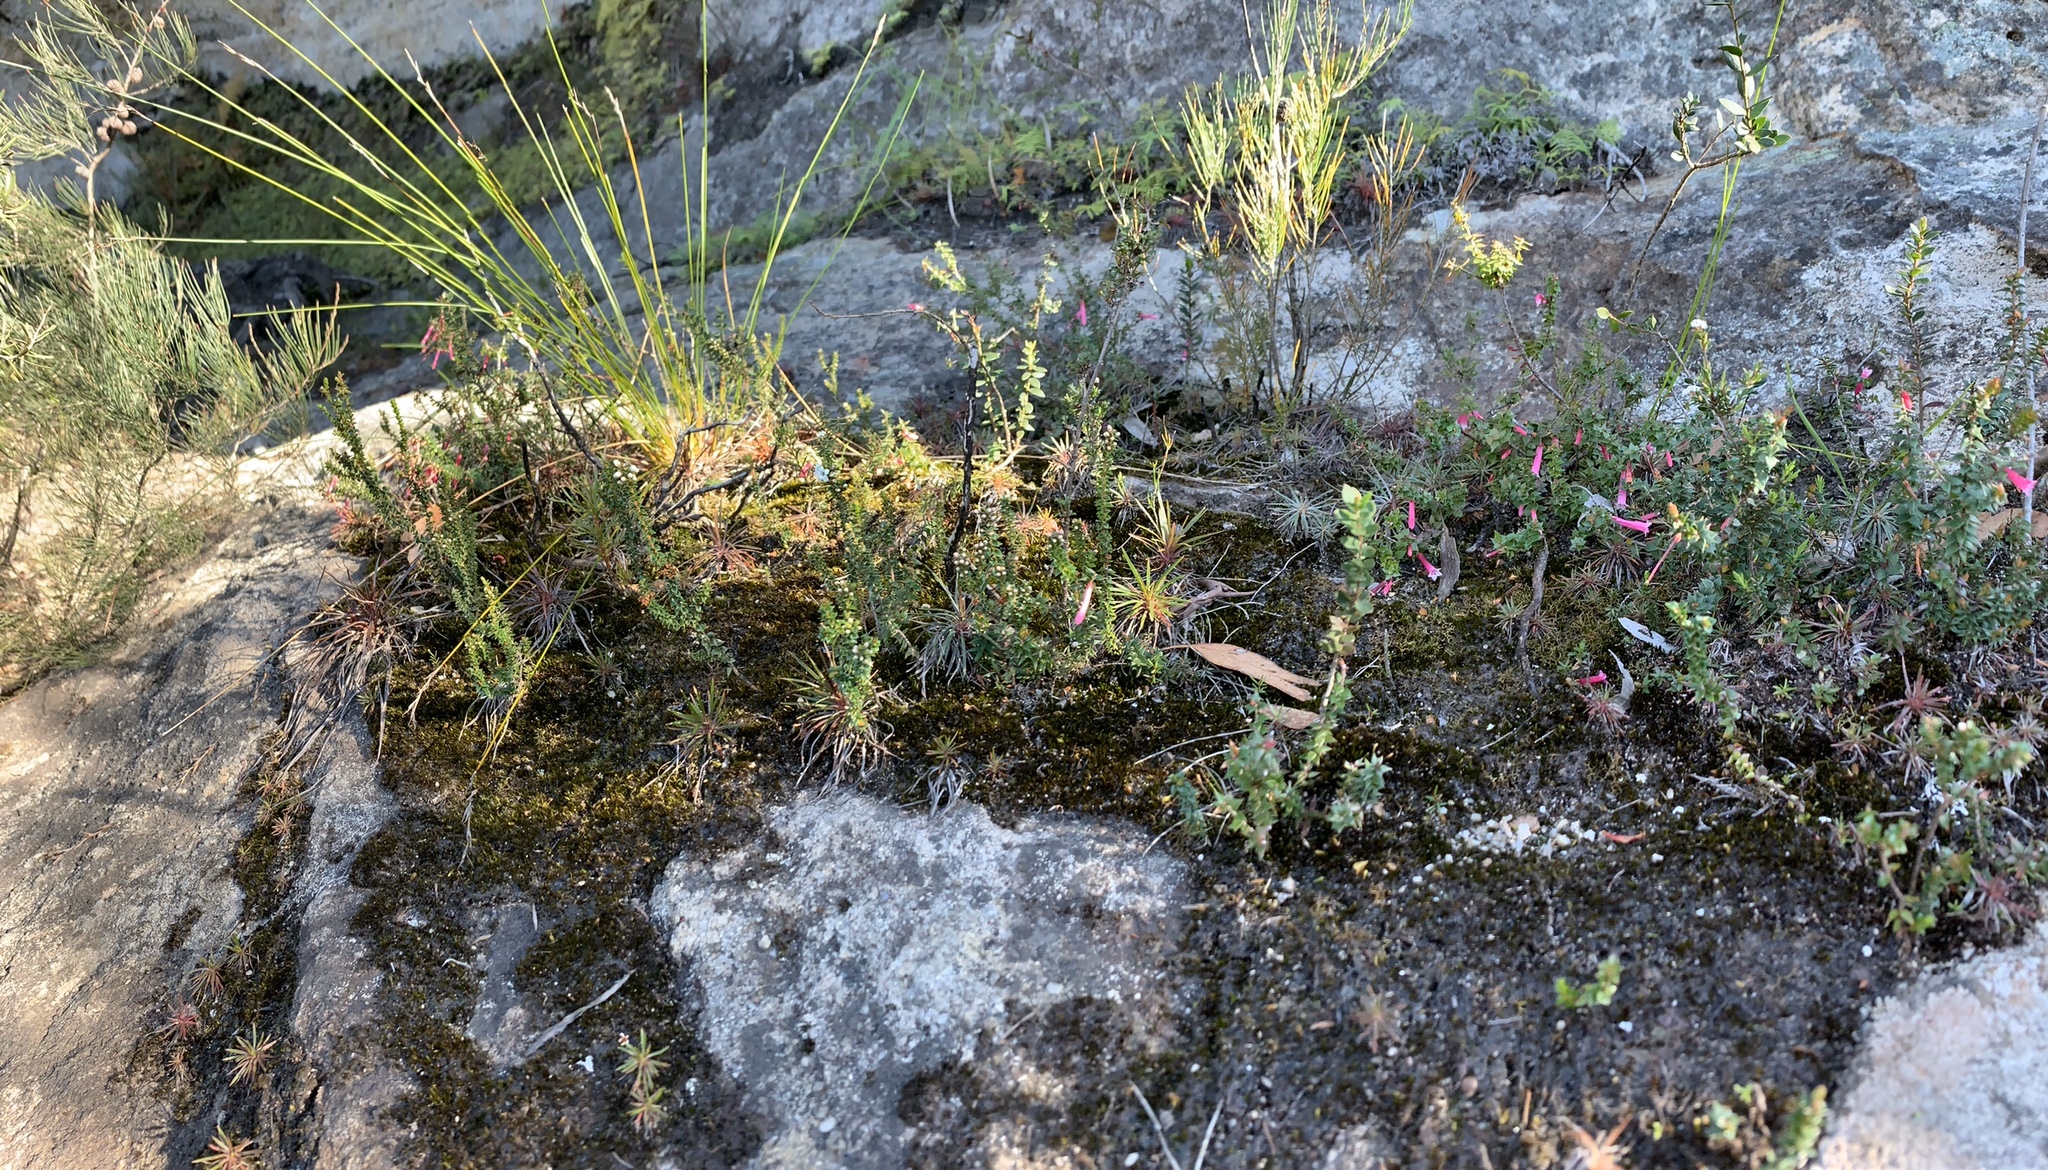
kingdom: Plantae
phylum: Tracheophyta
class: Magnoliopsida
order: Ericales
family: Ericaceae
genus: Epacris
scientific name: Epacris reclinata
